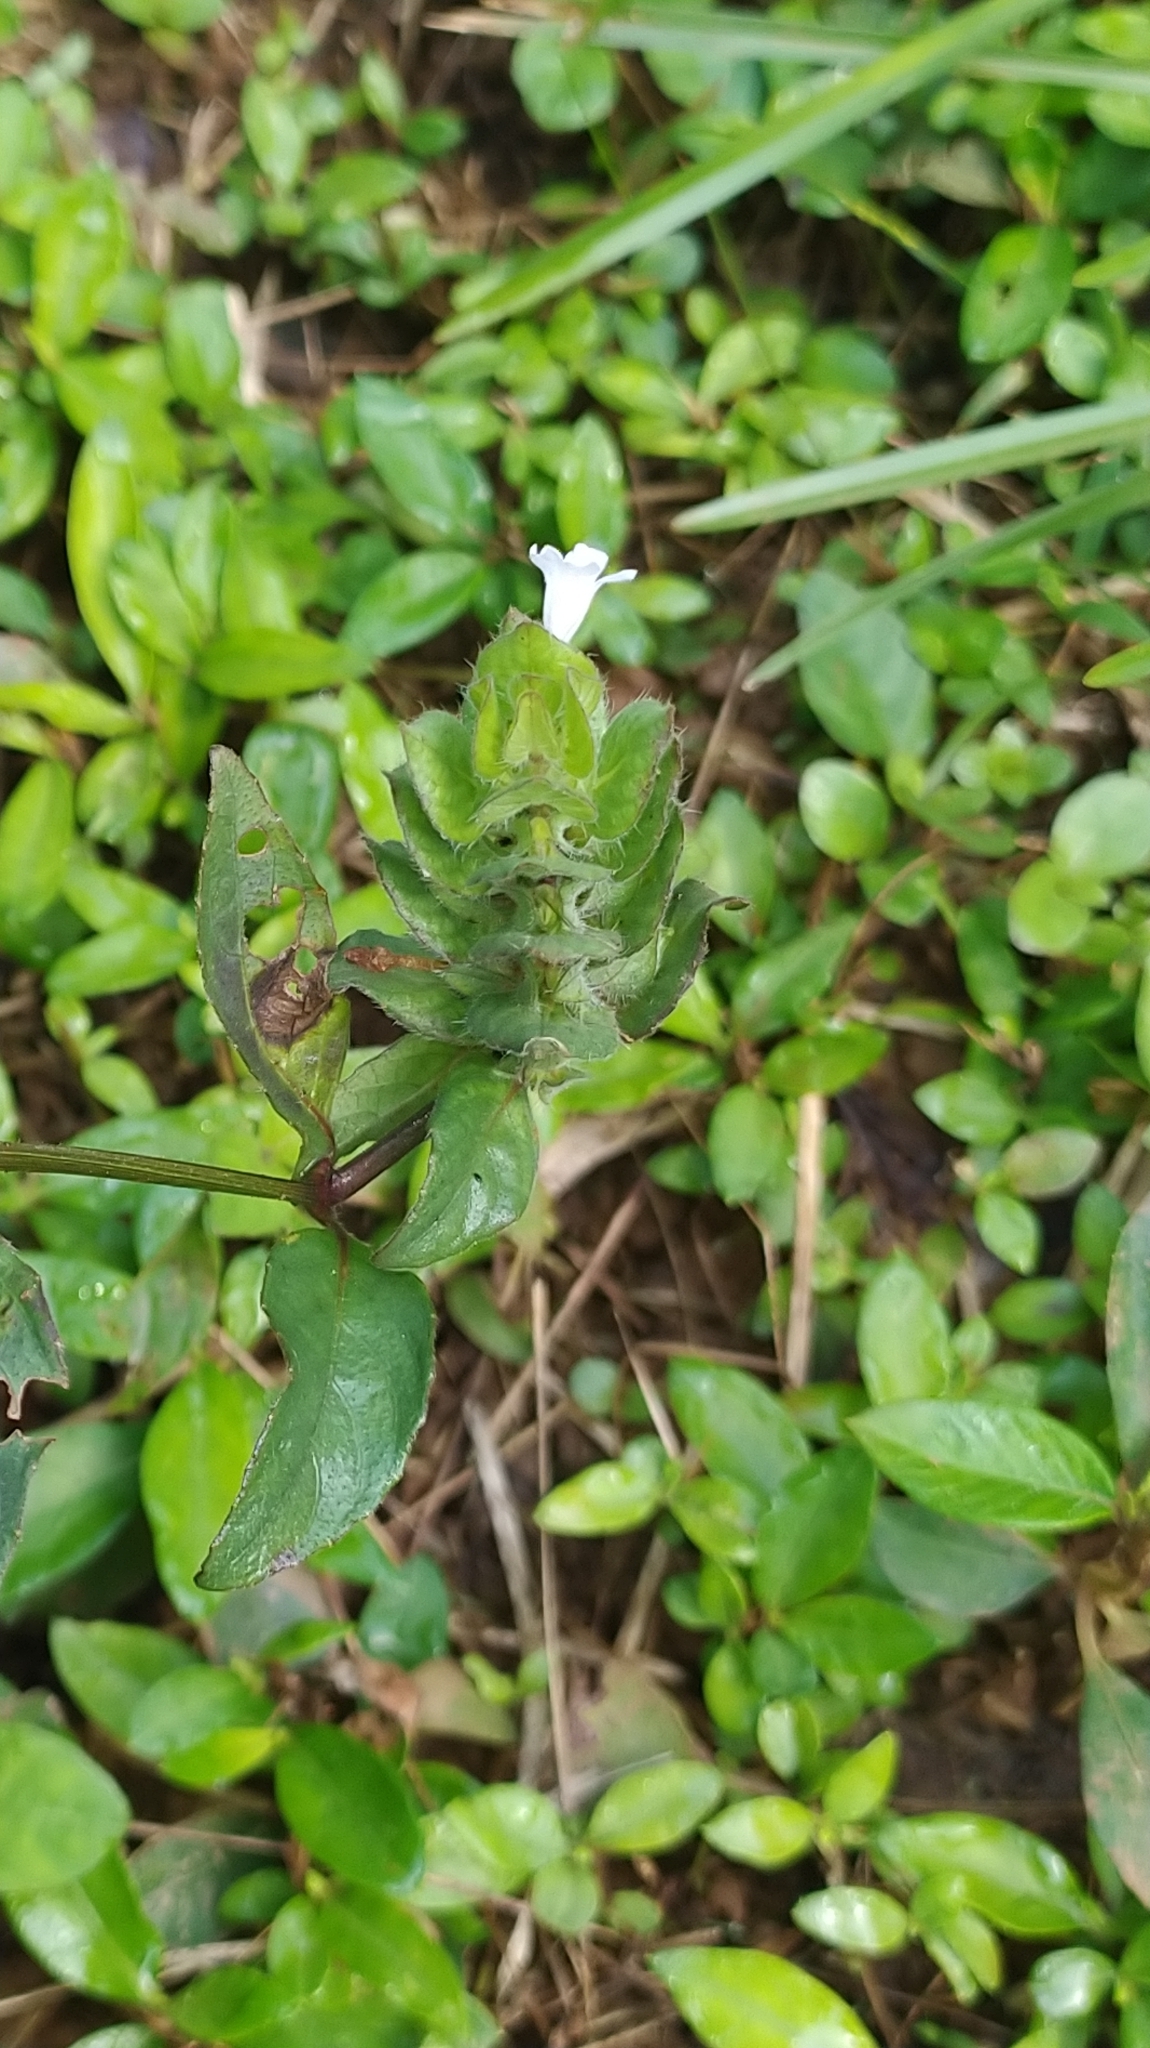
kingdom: Plantae
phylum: Tracheophyta
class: Magnoliopsida
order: Lamiales
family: Acanthaceae
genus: Ruellia
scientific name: Ruellia blechum
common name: Browne's blechum
